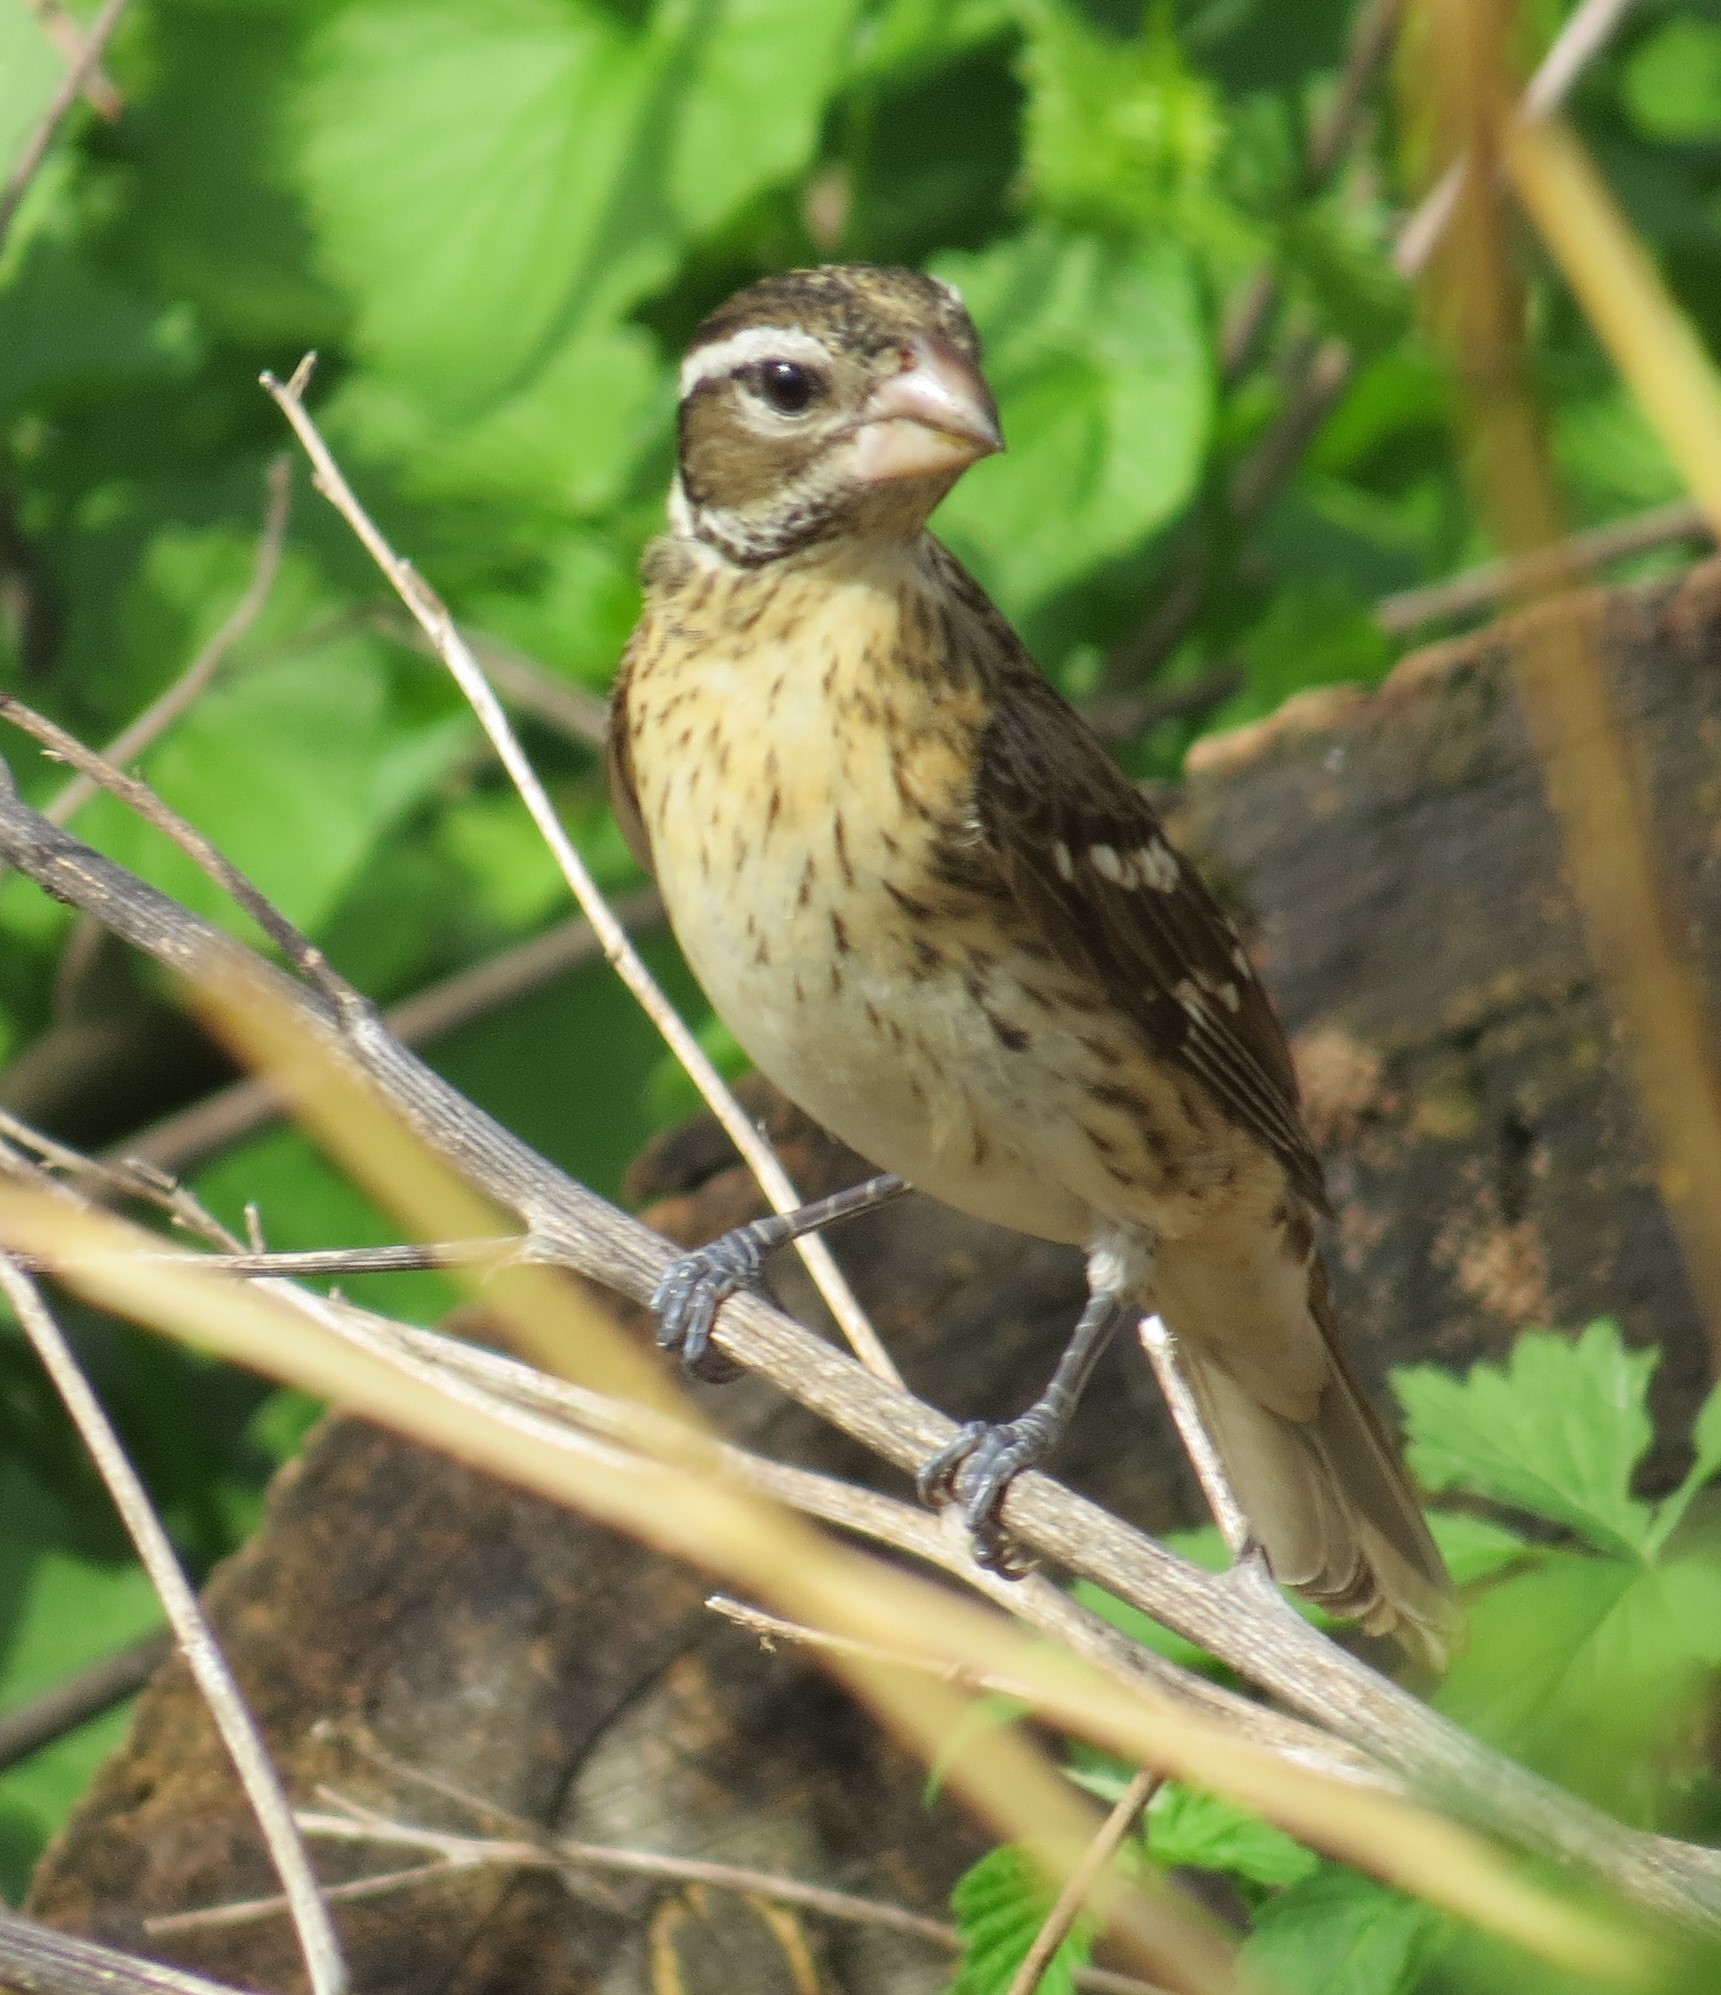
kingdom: Animalia
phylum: Chordata
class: Aves
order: Passeriformes
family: Cardinalidae
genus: Pheucticus
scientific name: Pheucticus ludovicianus
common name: Rose-breasted grosbeak
